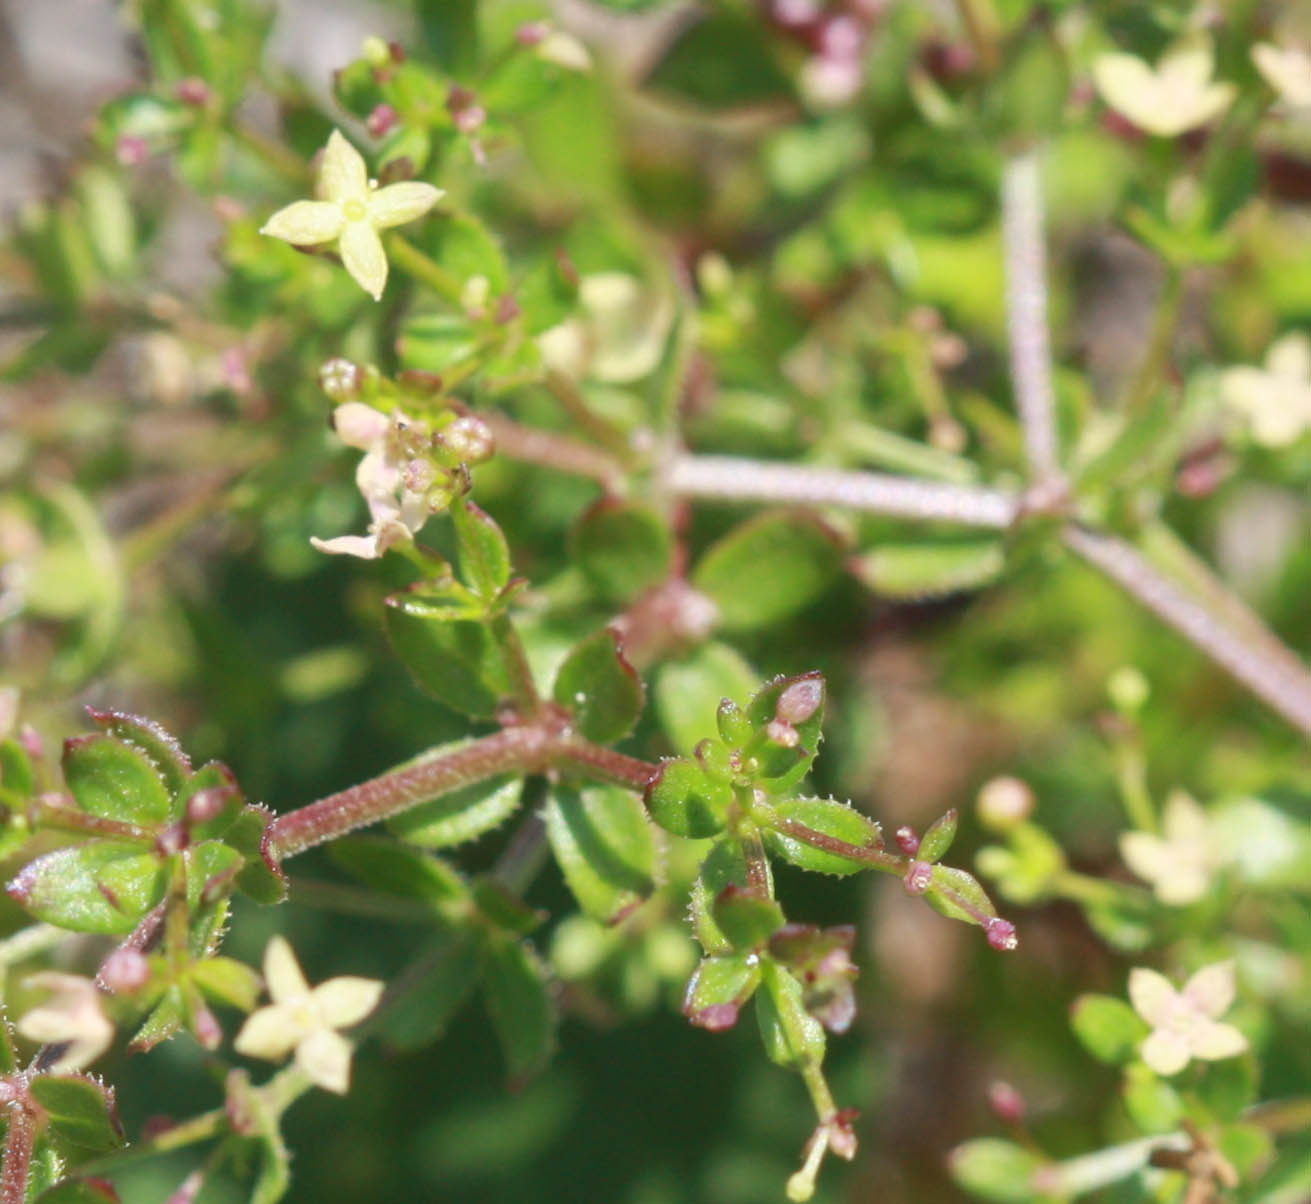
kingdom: Plantae
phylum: Tracheophyta
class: Magnoliopsida
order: Gentianales
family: Rubiaceae
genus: Galium
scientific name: Galium porrigens
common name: Climbing bedstraw
